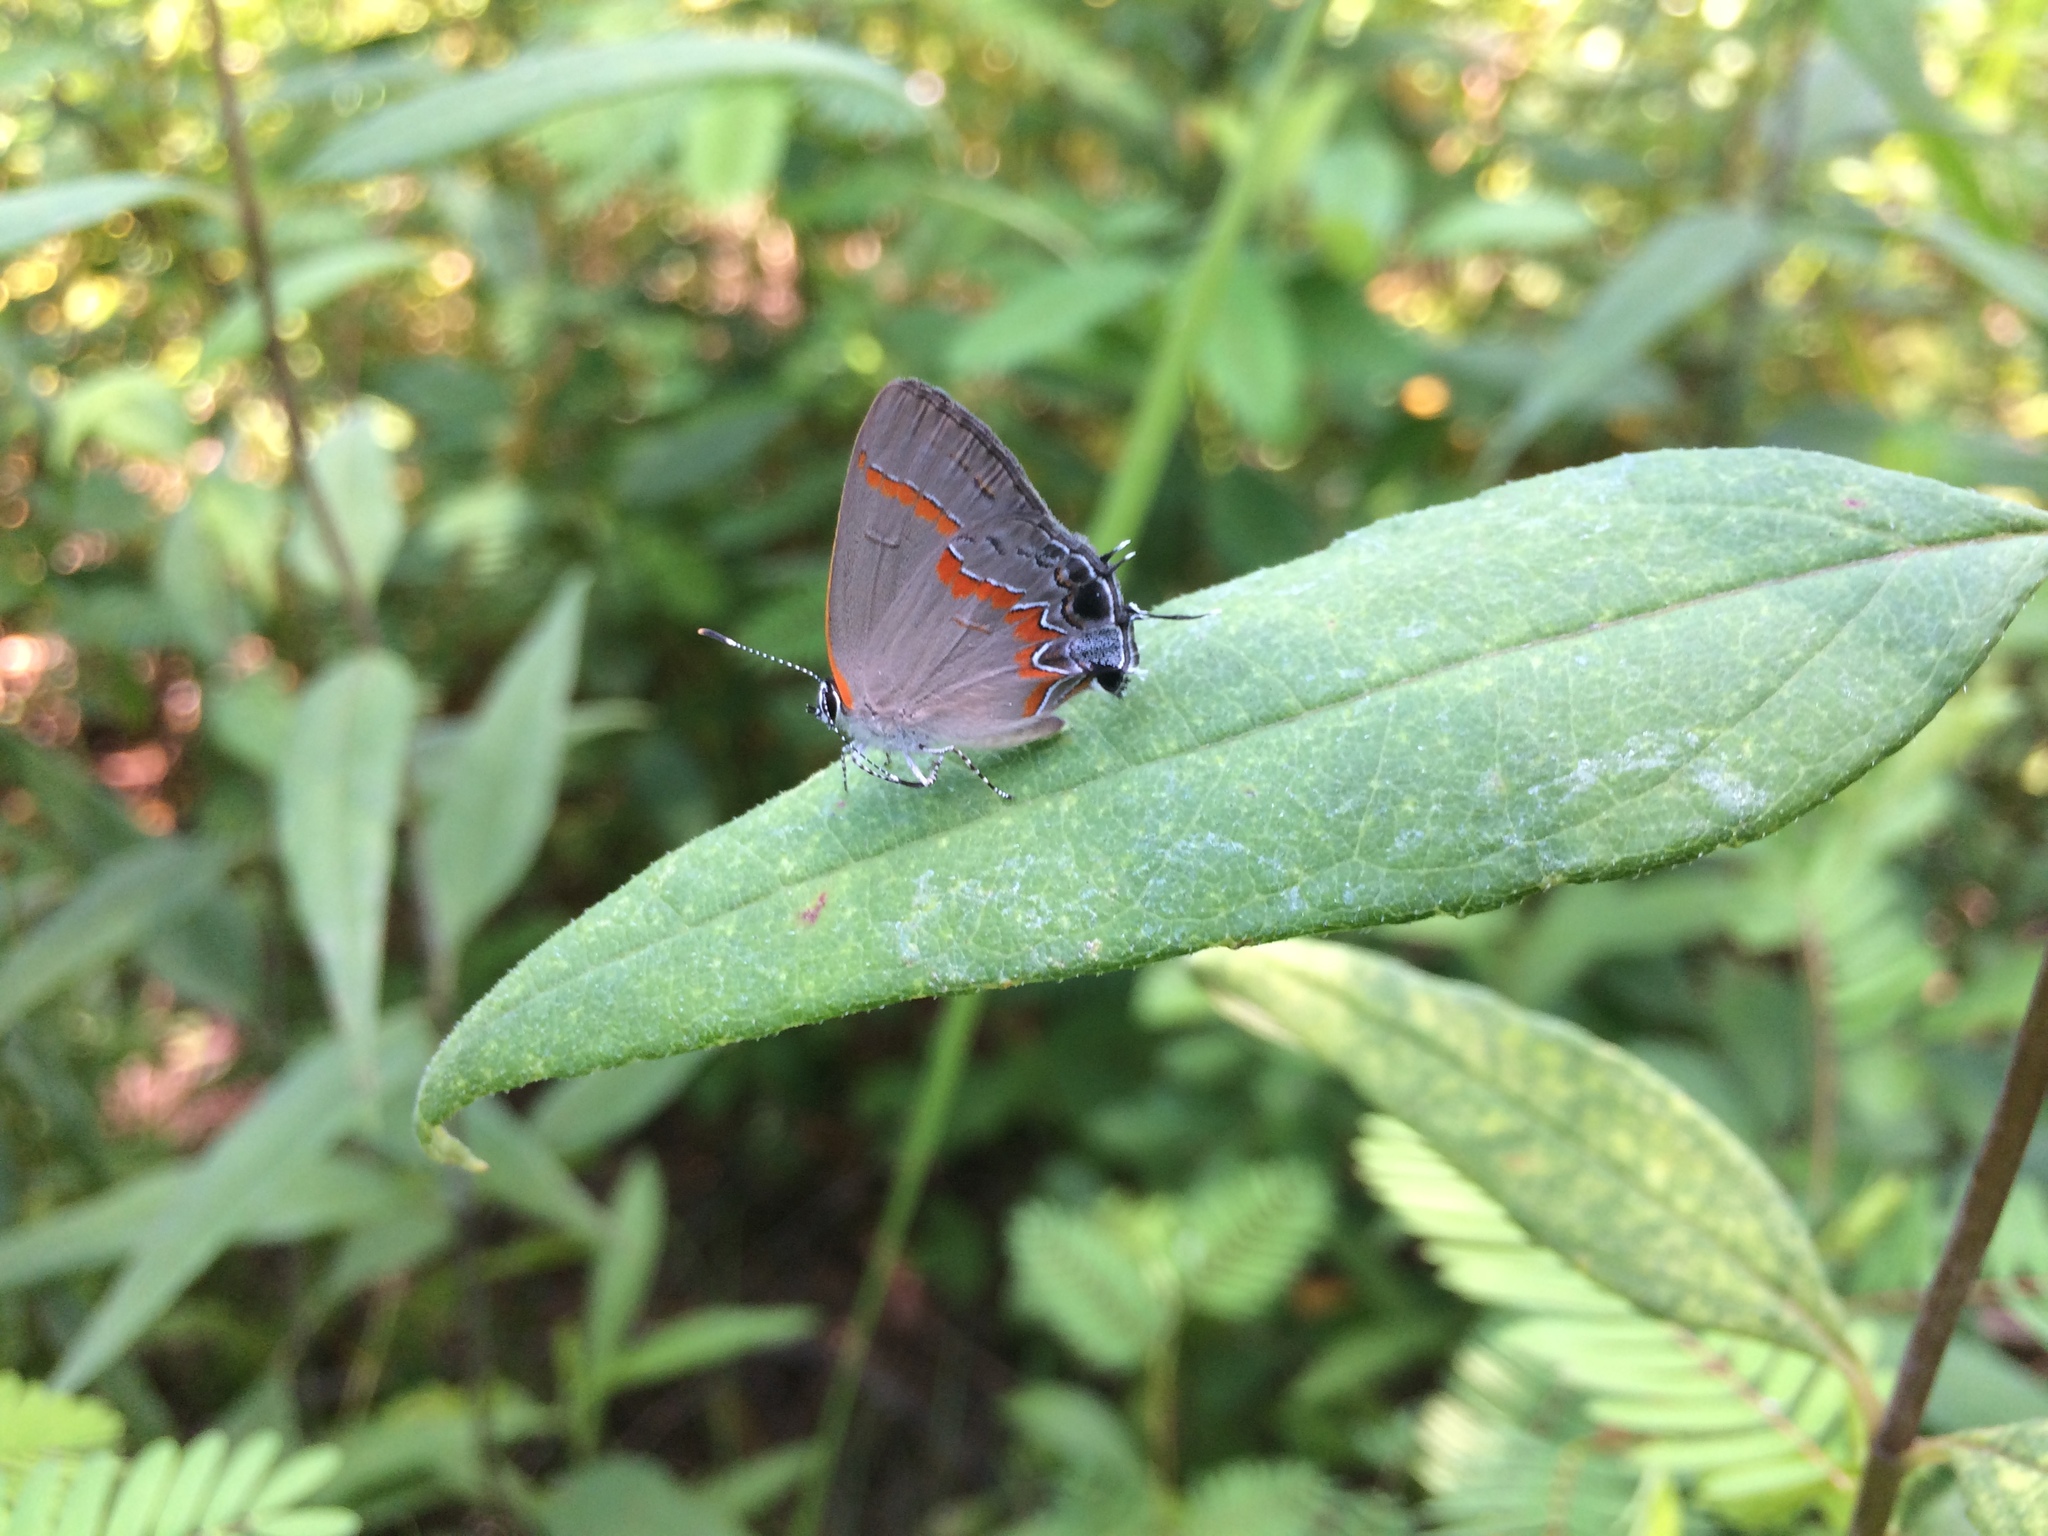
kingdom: Animalia
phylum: Arthropoda
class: Insecta
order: Lepidoptera
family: Lycaenidae
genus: Calycopis
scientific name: Calycopis cecrops
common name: Red-banded hairstreak
